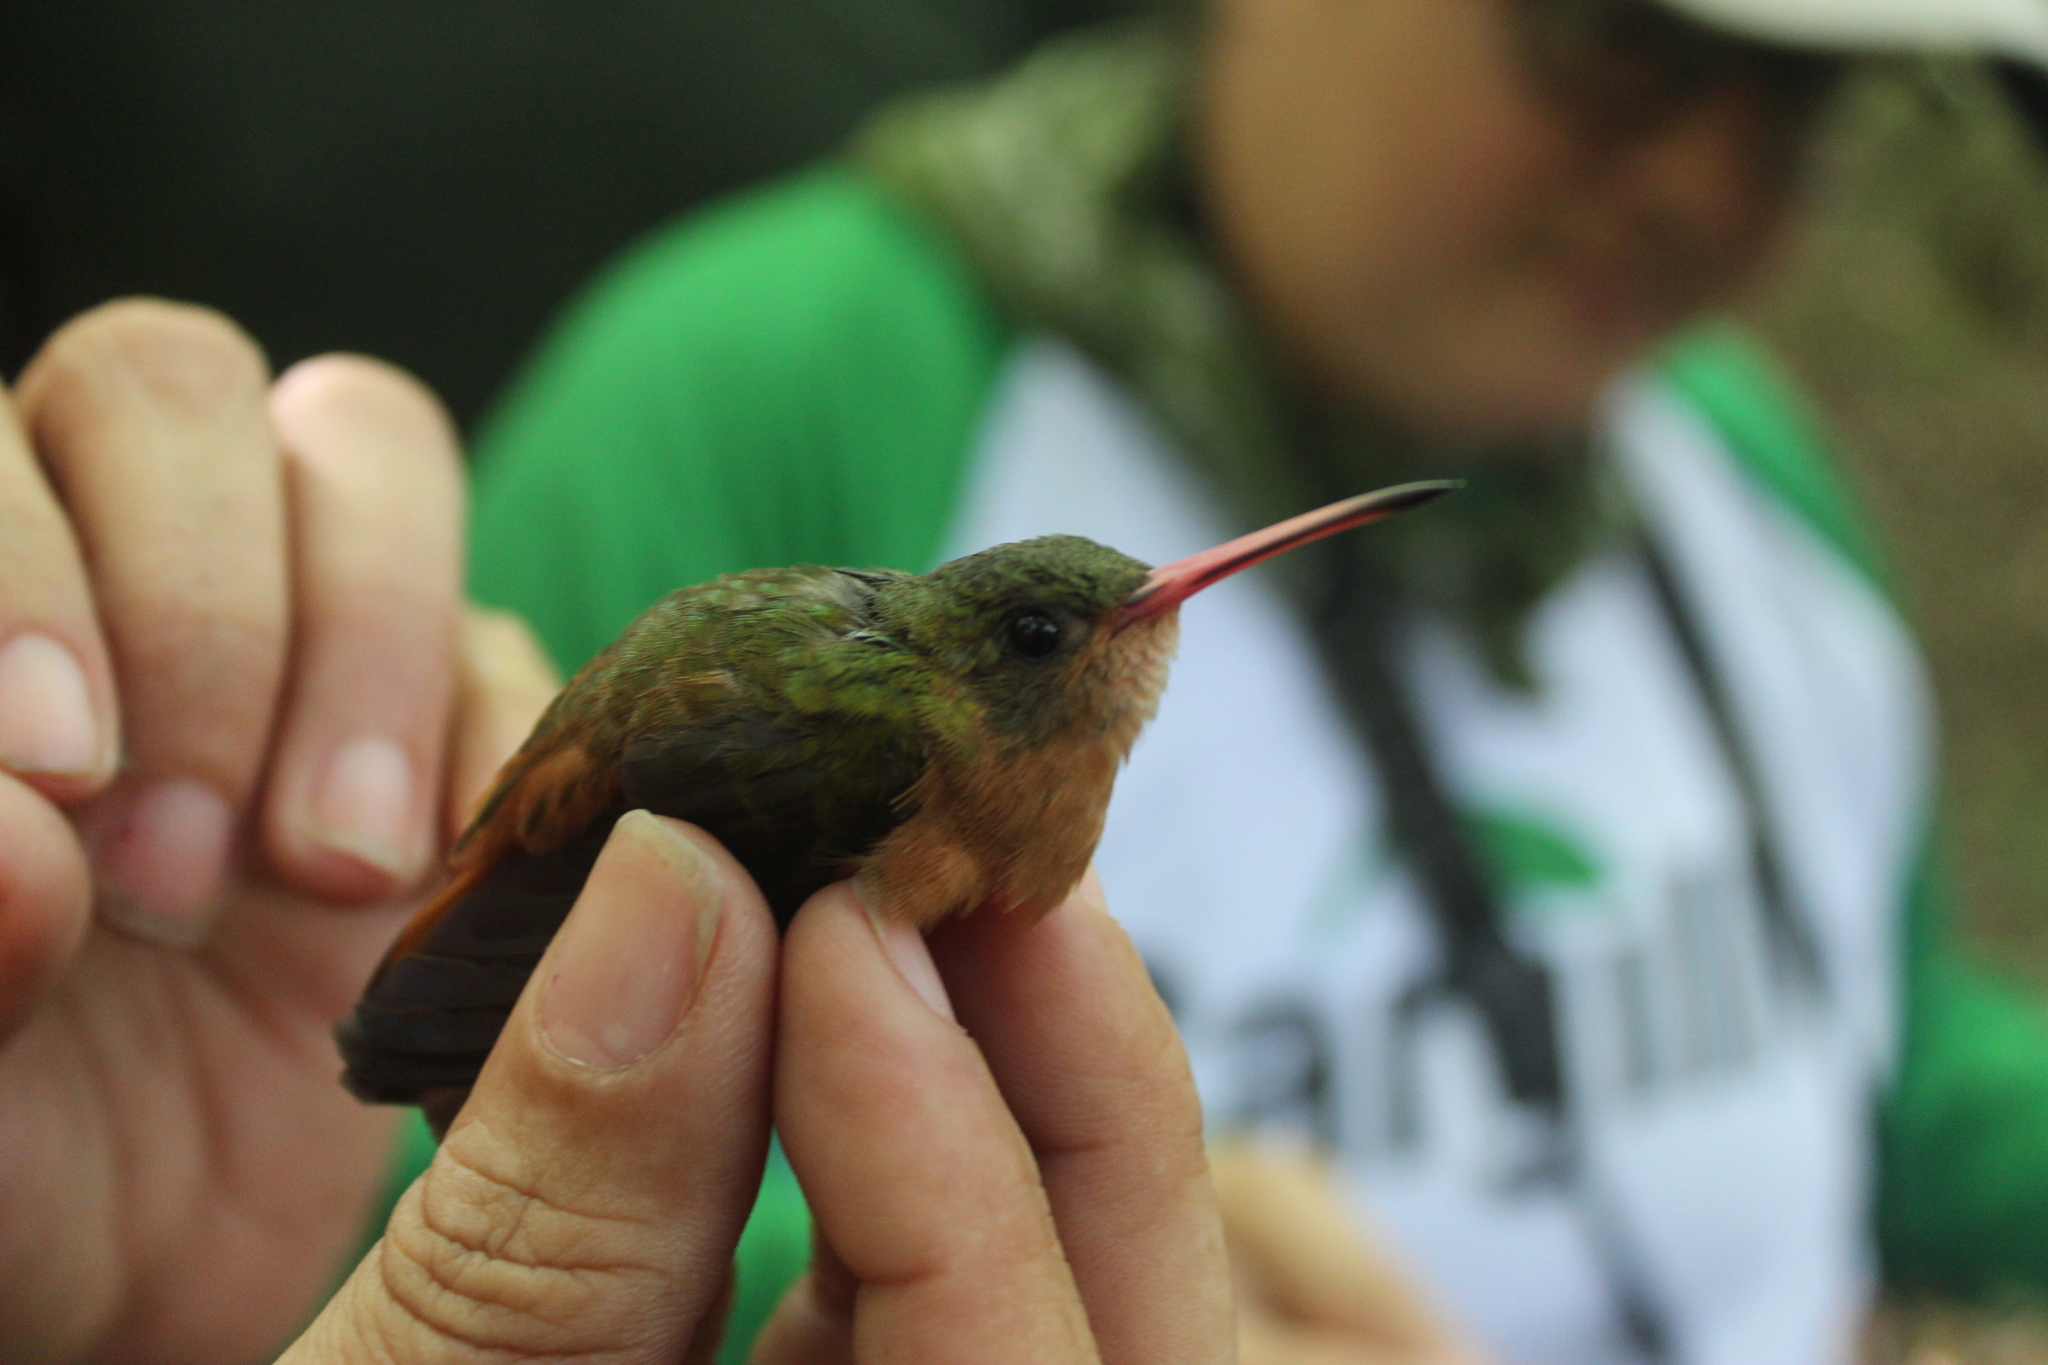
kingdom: Animalia
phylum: Chordata
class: Aves
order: Apodiformes
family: Trochilidae
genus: Amazilia
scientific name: Amazilia rutila
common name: Cinnamon hummingbird
